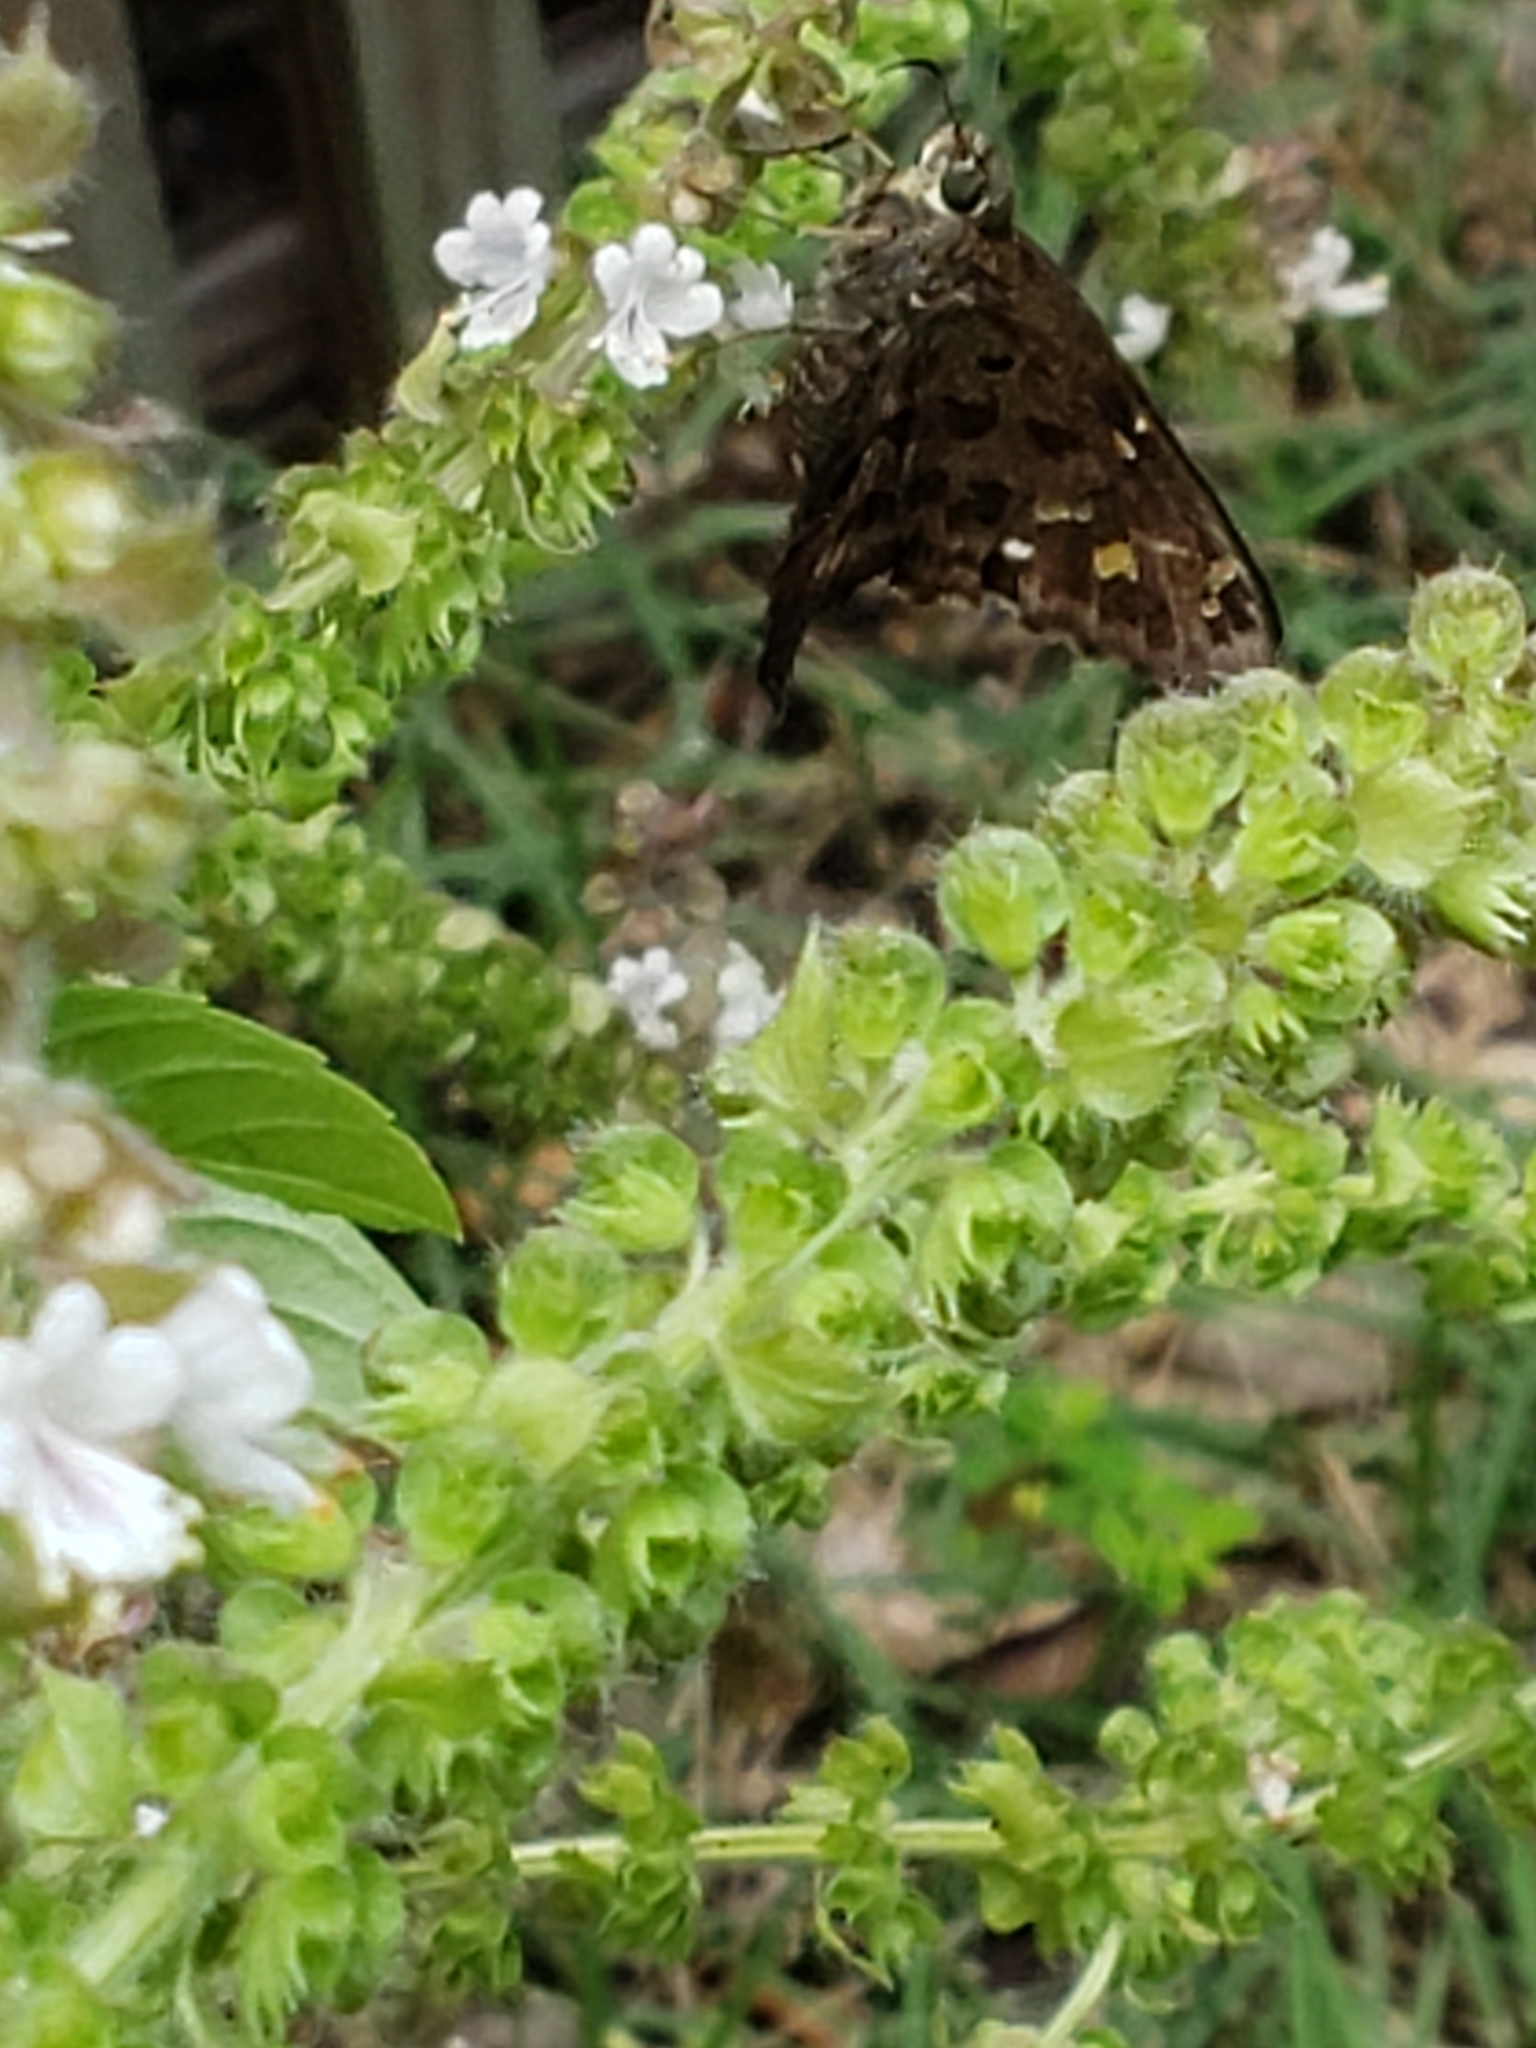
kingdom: Animalia
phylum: Arthropoda
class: Insecta
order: Lepidoptera
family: Hesperiidae
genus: Thorybes
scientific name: Thorybes
